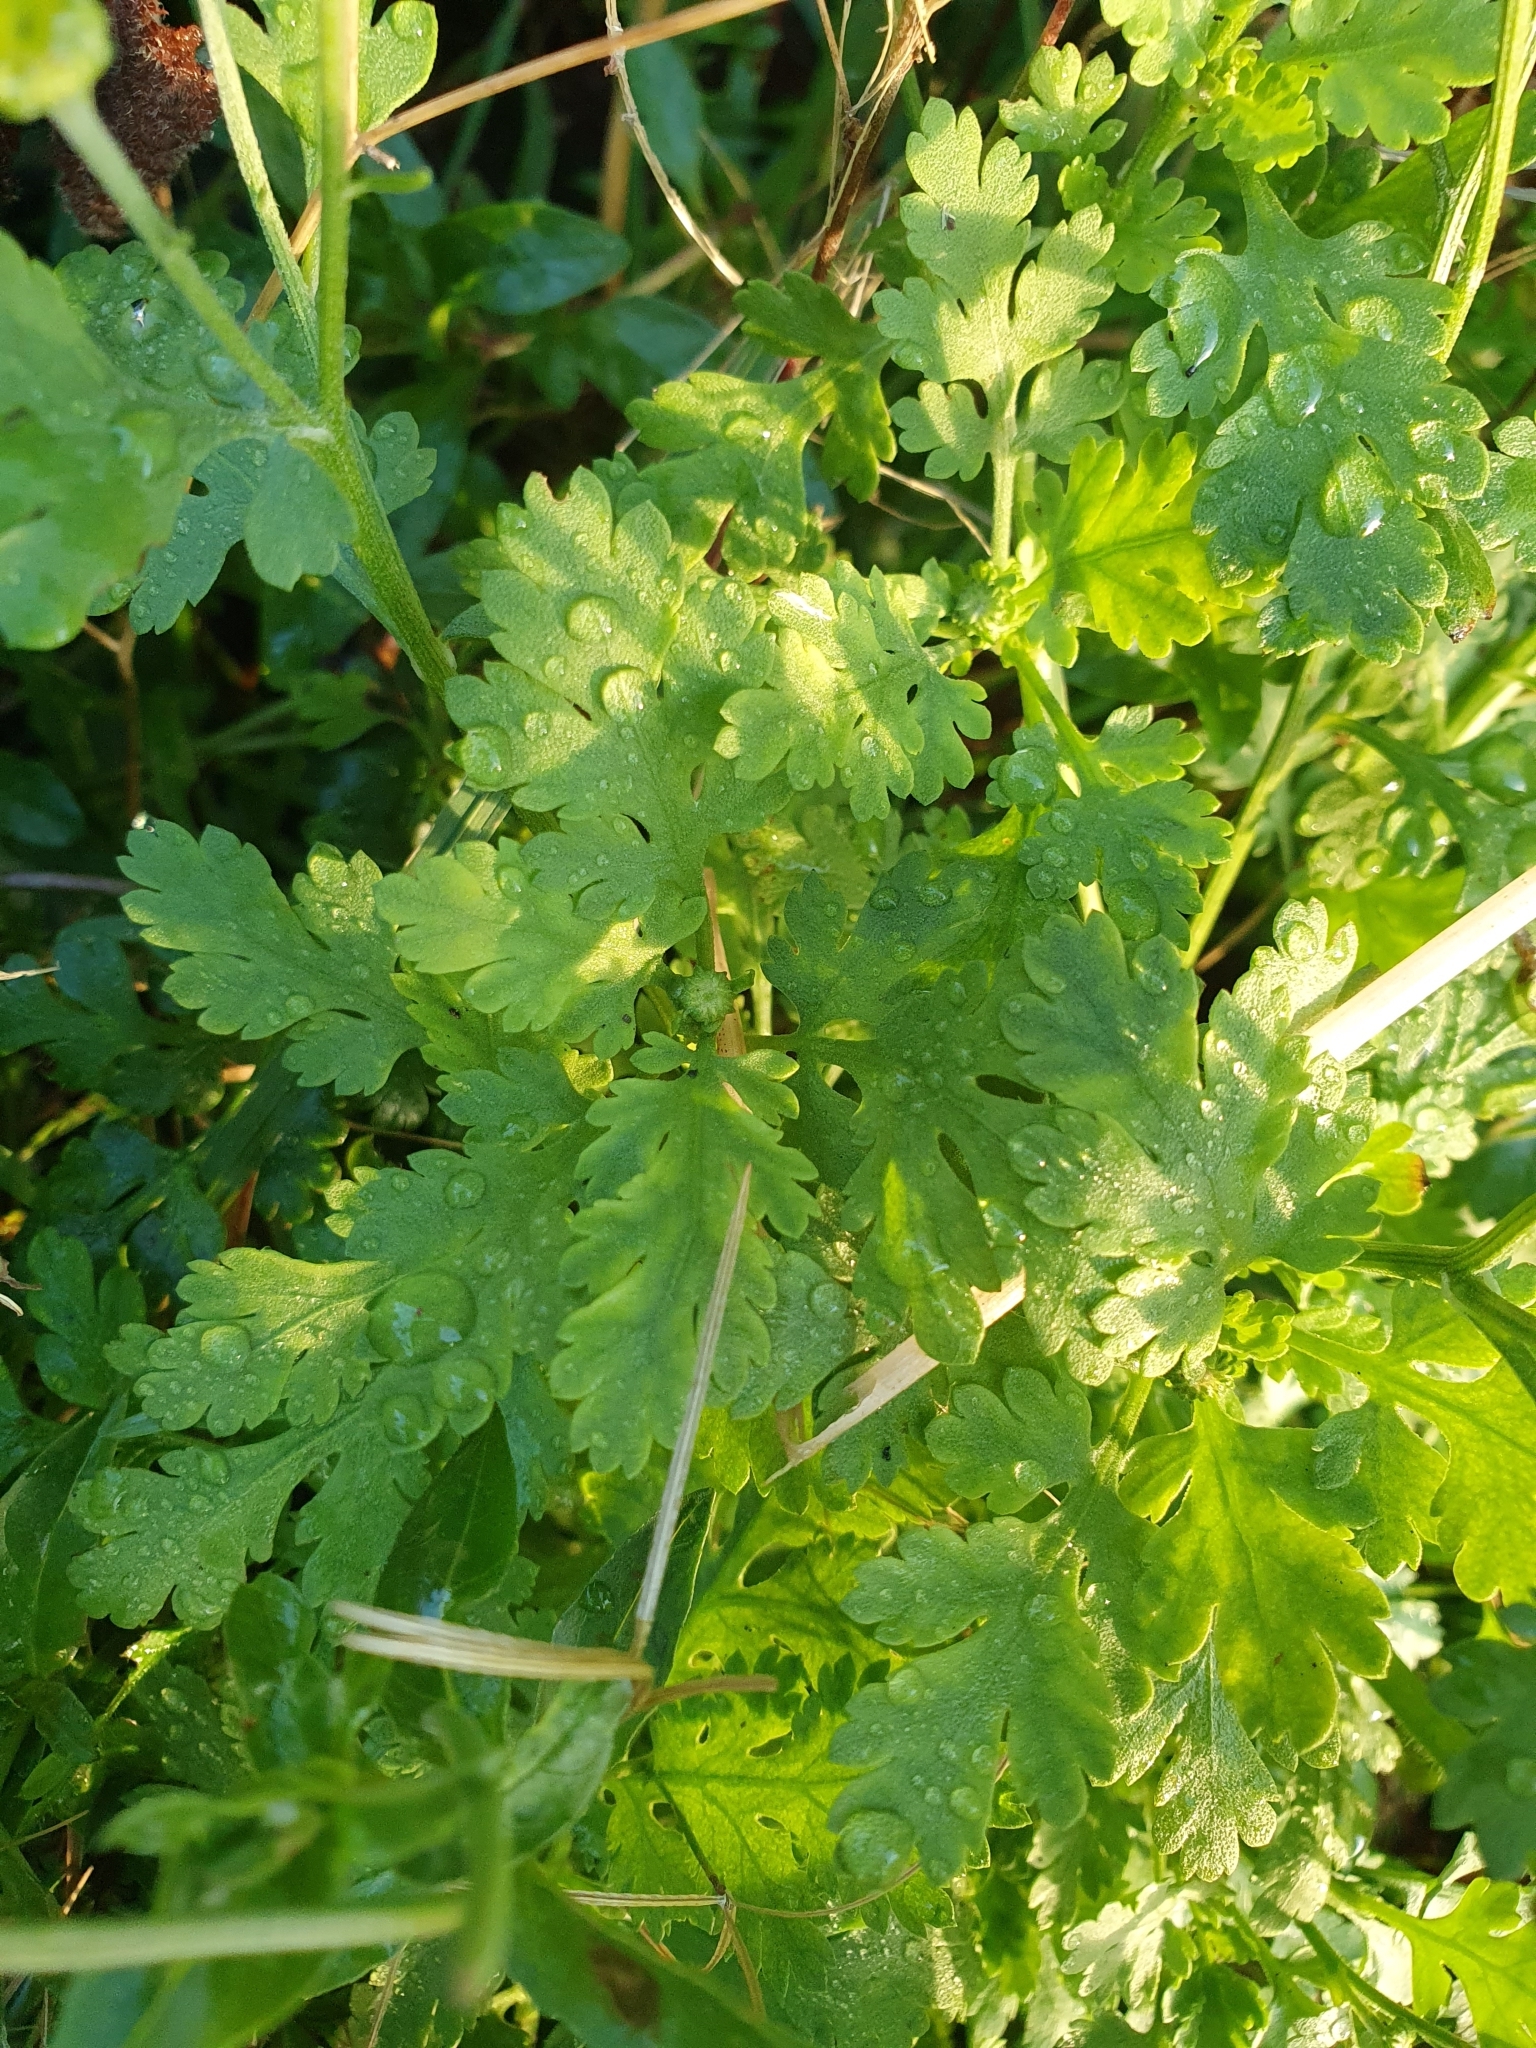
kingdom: Plantae
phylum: Tracheophyta
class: Magnoliopsida
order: Asterales
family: Asteraceae
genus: Tanacetum
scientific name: Tanacetum parthenium
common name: Feverfew
